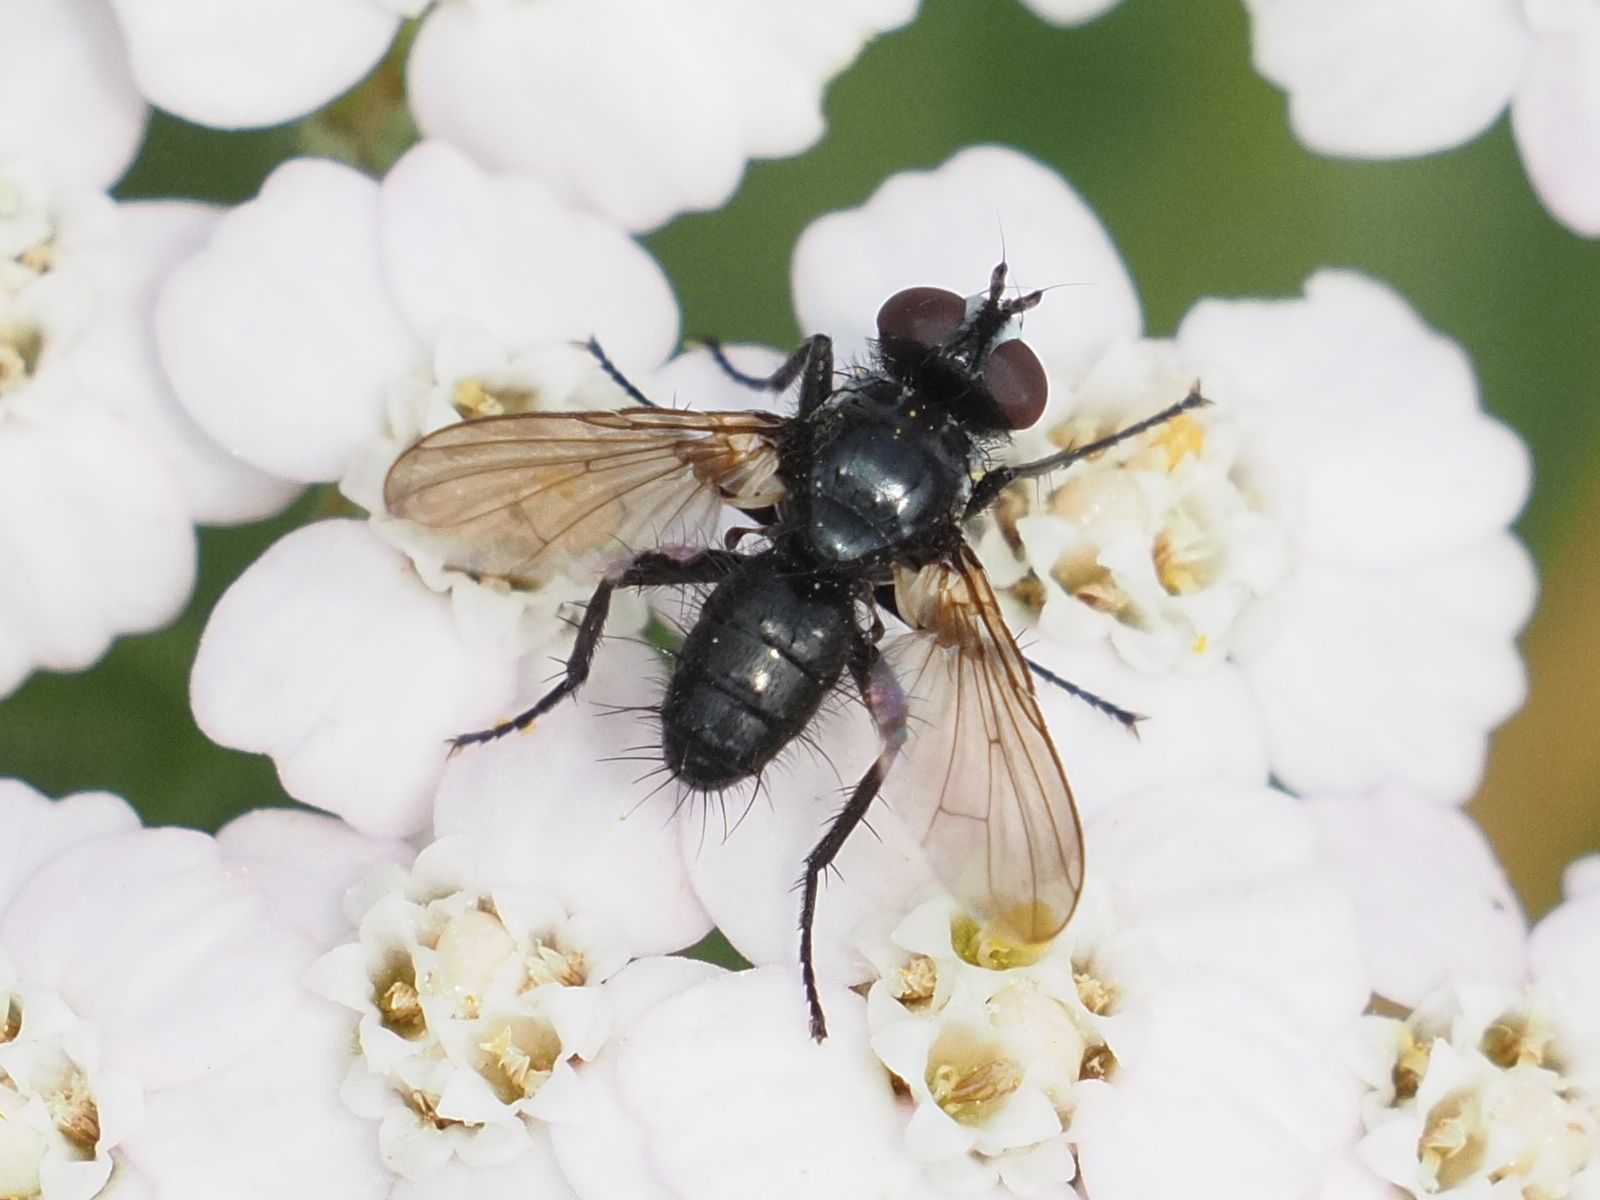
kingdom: Animalia
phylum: Arthropoda
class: Insecta
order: Diptera
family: Tachinidae
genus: Phania
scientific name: Phania funesta
